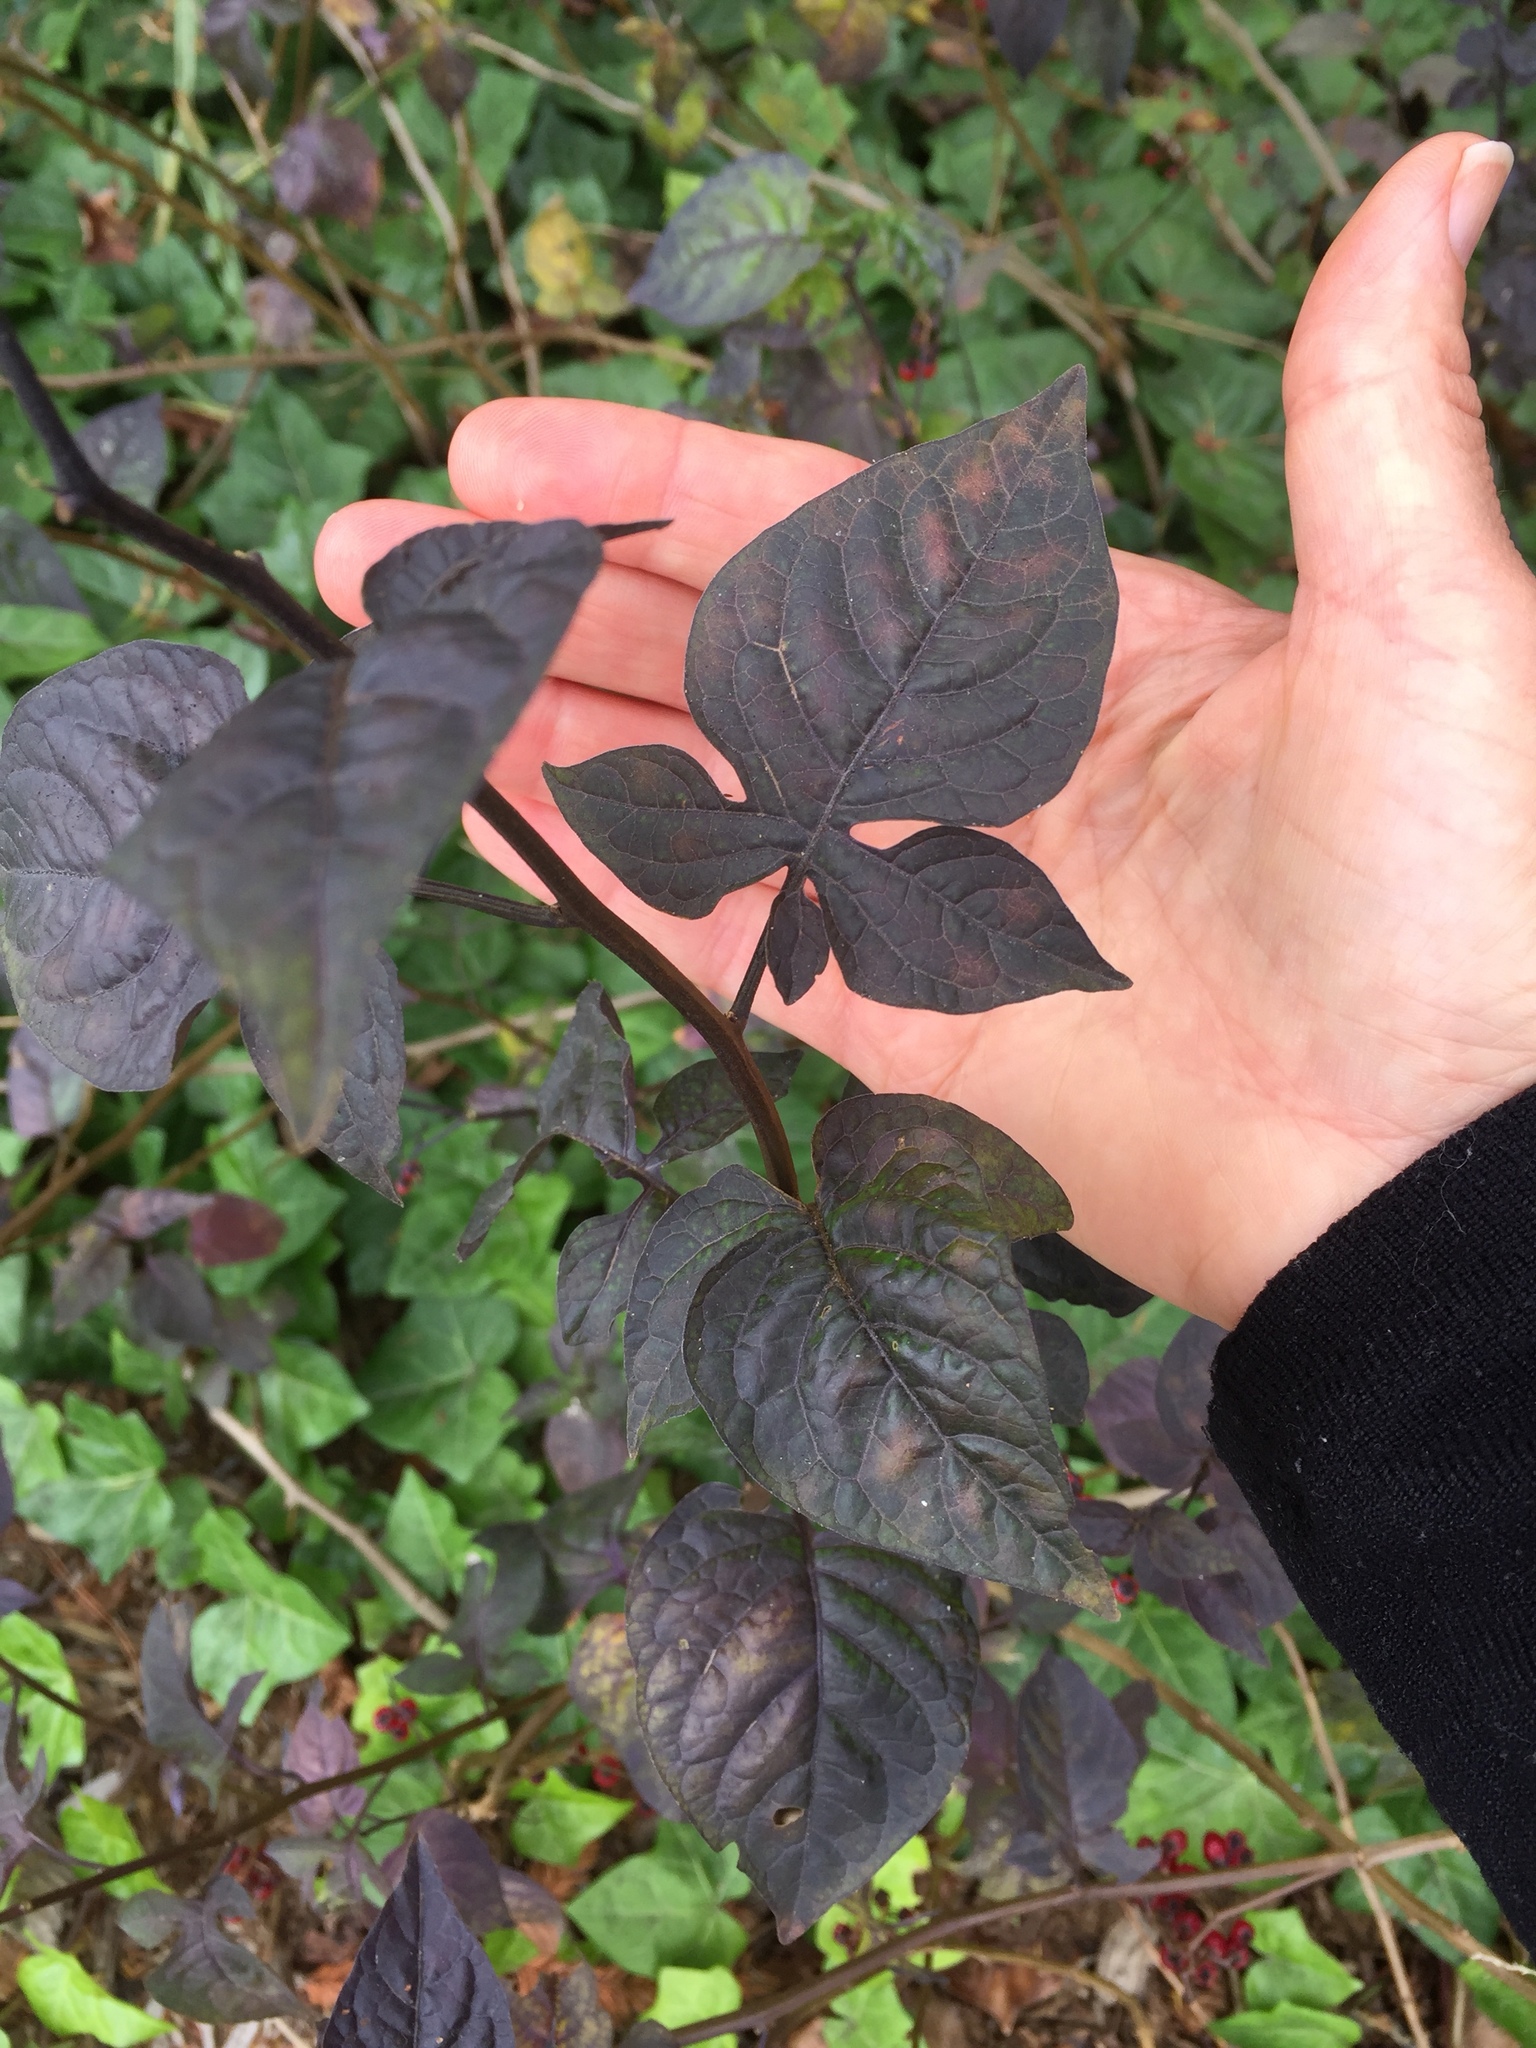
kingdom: Plantae
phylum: Tracheophyta
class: Magnoliopsida
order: Solanales
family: Solanaceae
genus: Solanum
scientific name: Solanum dulcamara
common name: Climbing nightshade
